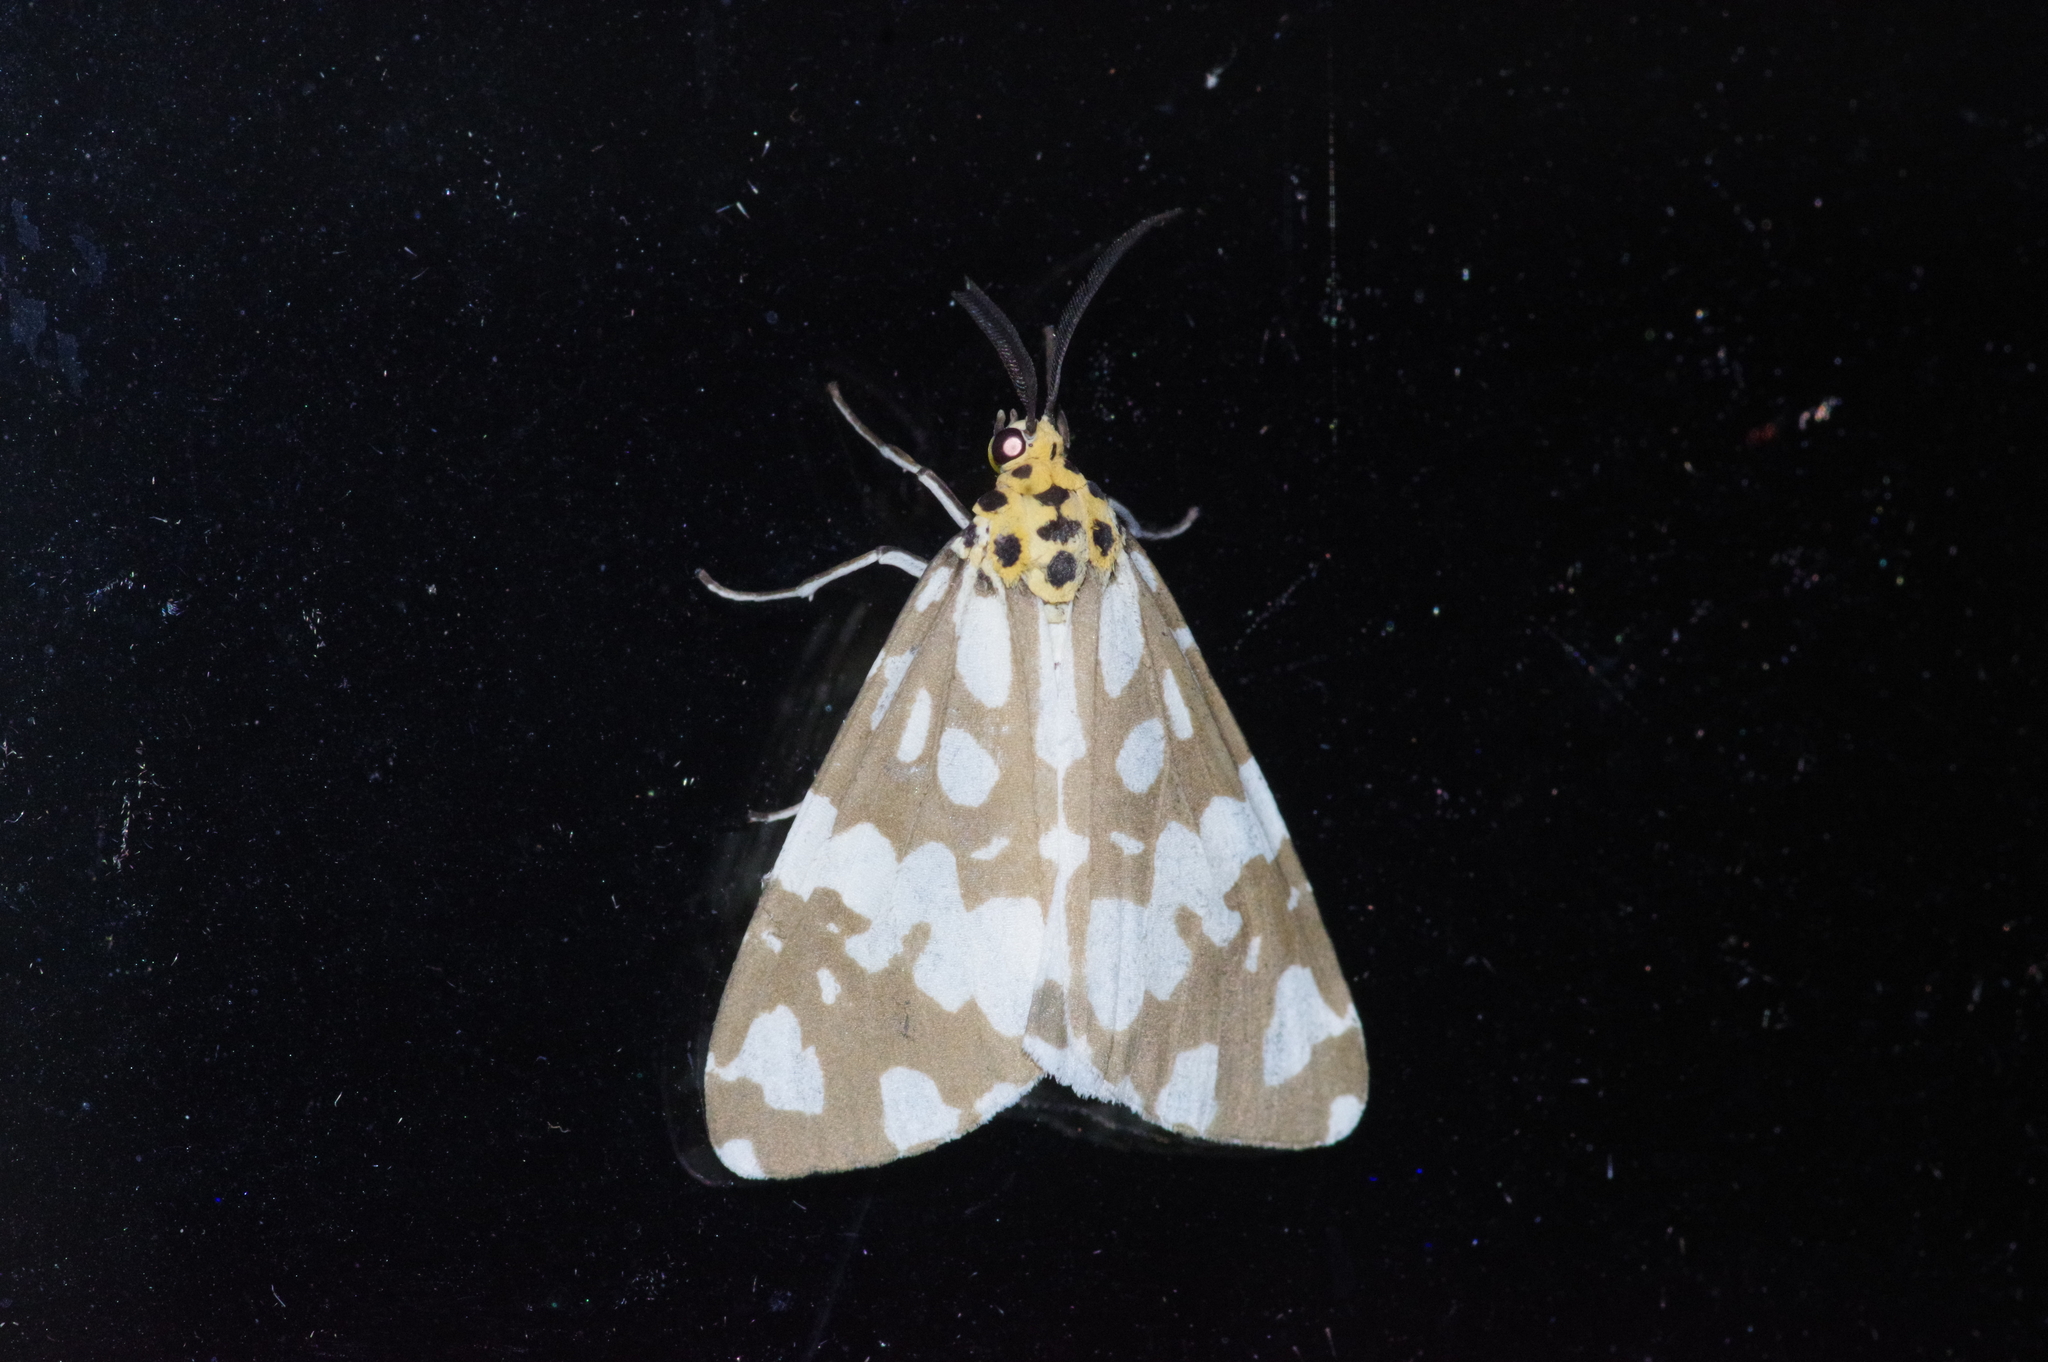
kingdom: Animalia
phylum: Arthropoda
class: Insecta
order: Lepidoptera
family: Erebidae
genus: Utetheisa
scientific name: Utetheisa inconstans
